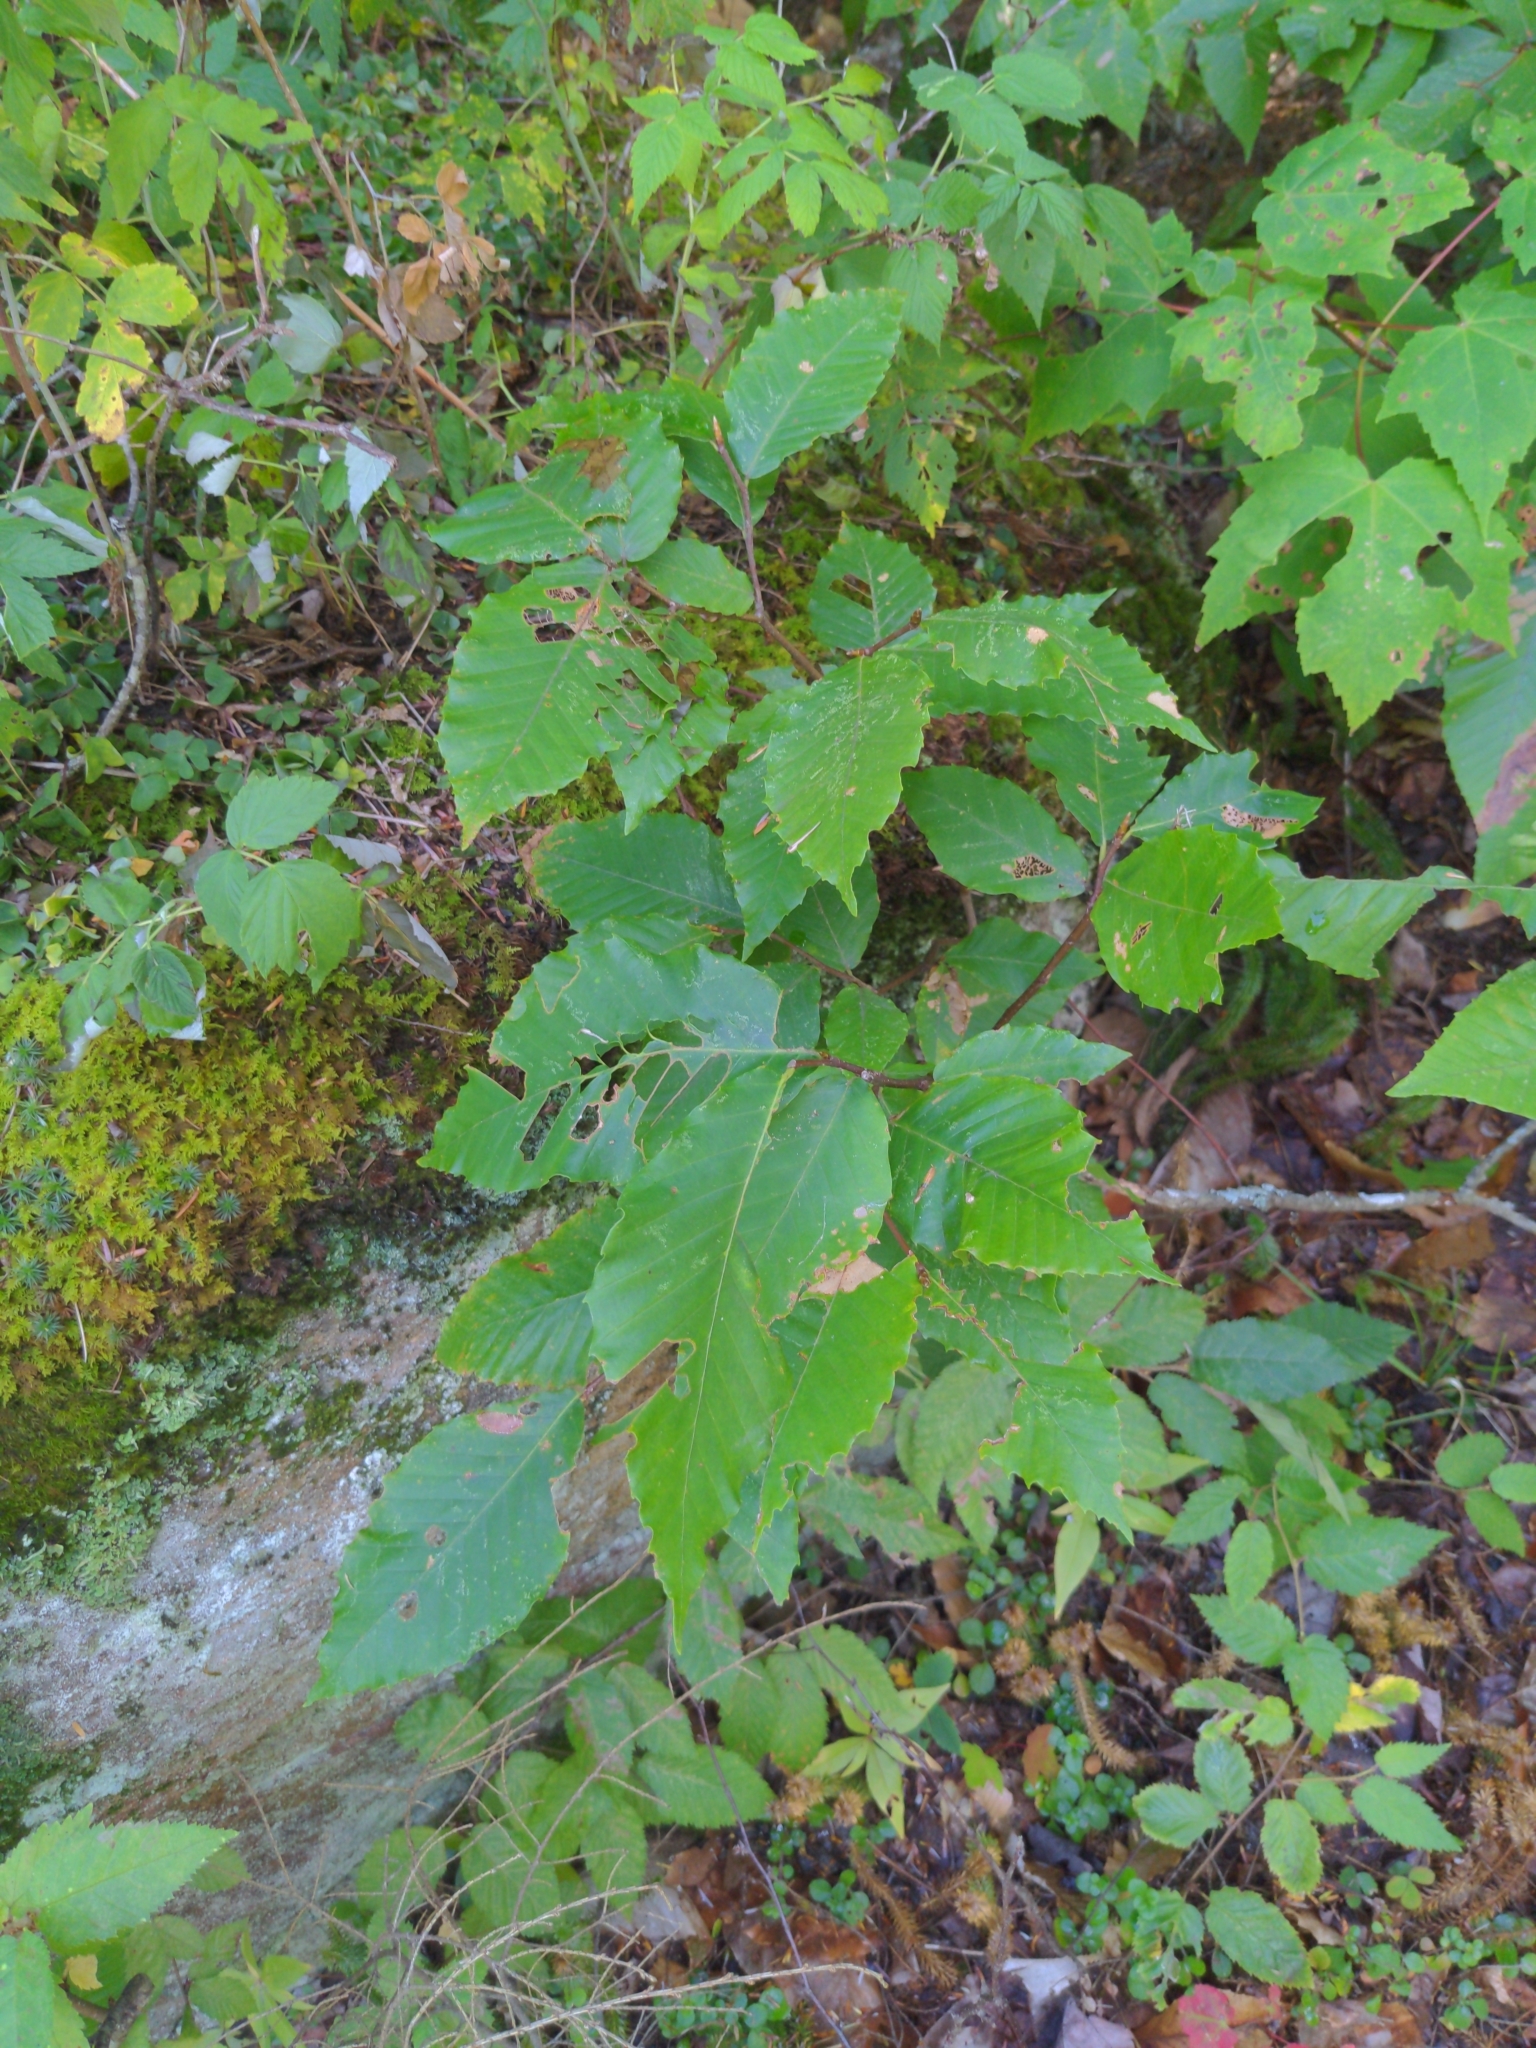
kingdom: Plantae
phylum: Tracheophyta
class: Magnoliopsida
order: Fagales
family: Fagaceae
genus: Fagus
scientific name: Fagus grandifolia
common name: American beech
